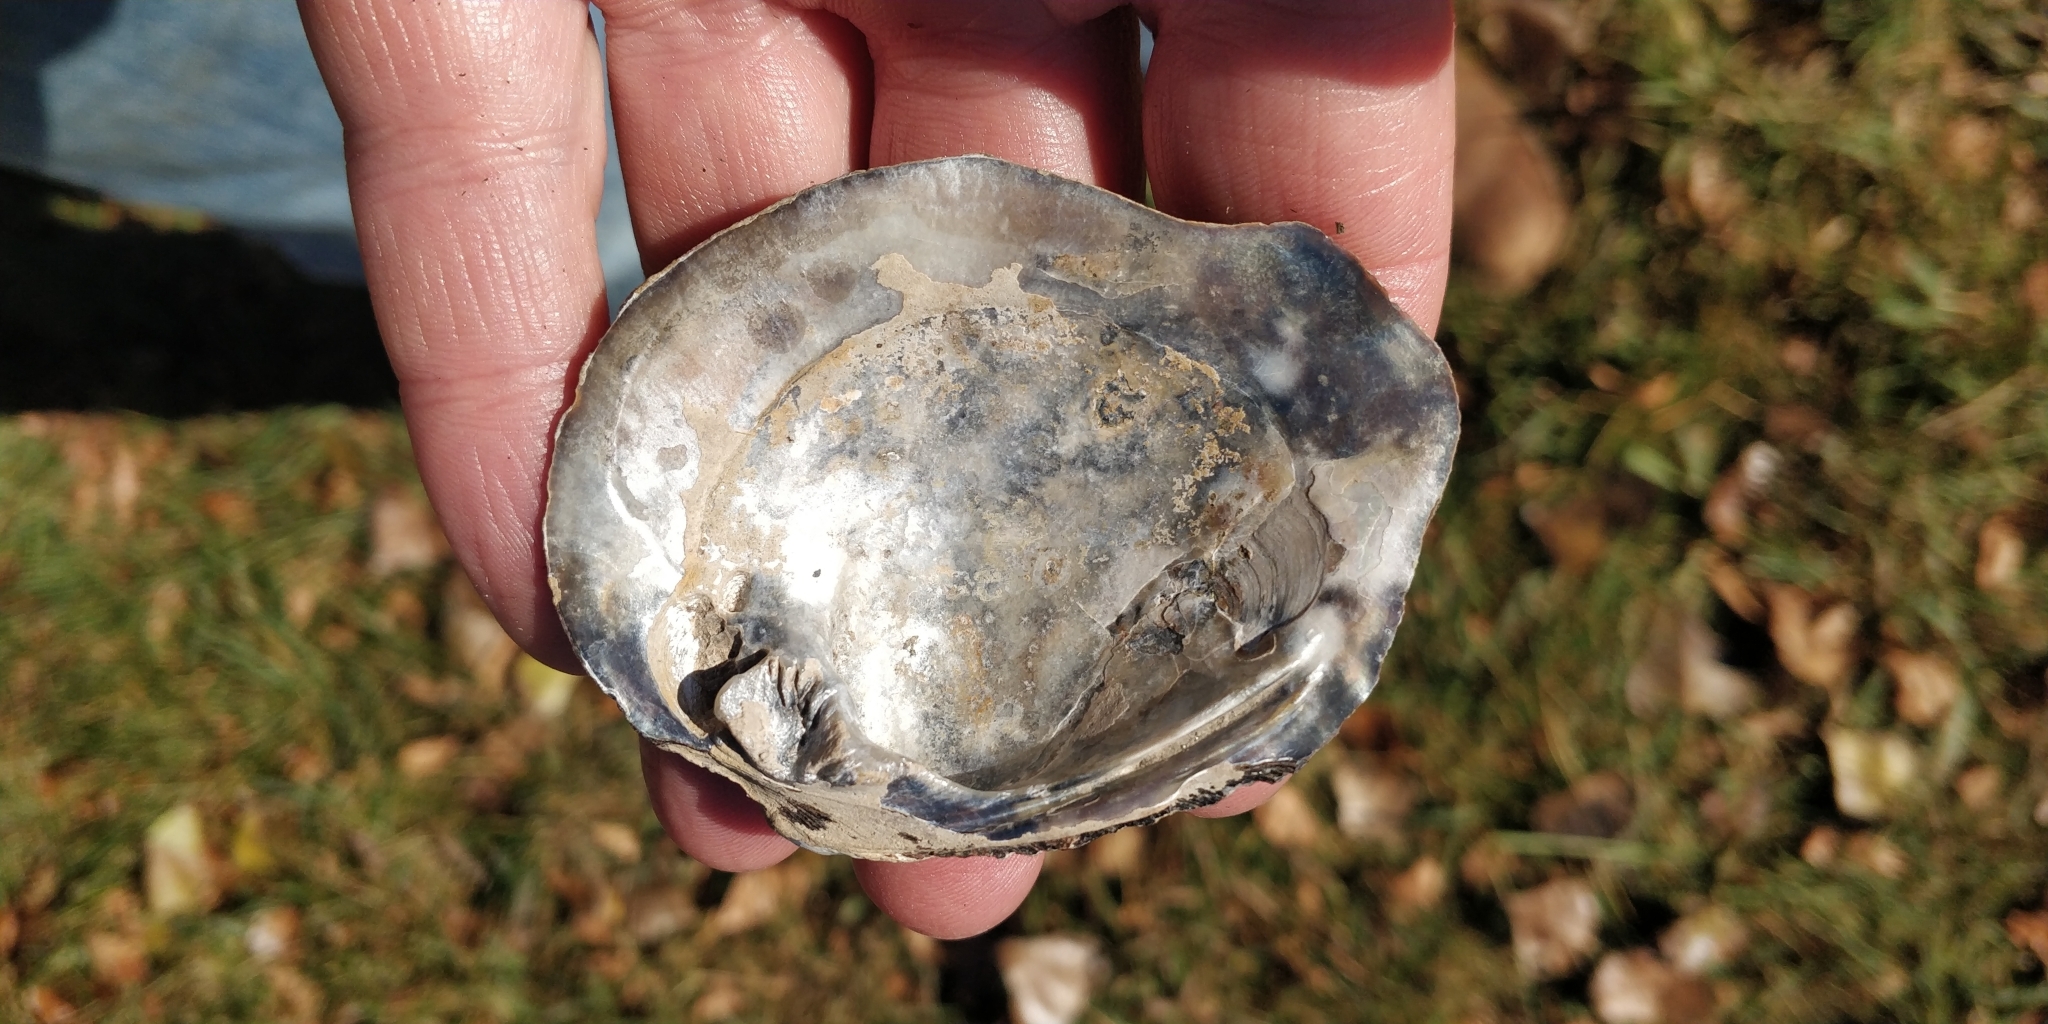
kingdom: Animalia
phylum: Mollusca
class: Bivalvia
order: Unionida
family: Unionidae
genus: Tritogonia
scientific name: Tritogonia nobilis
